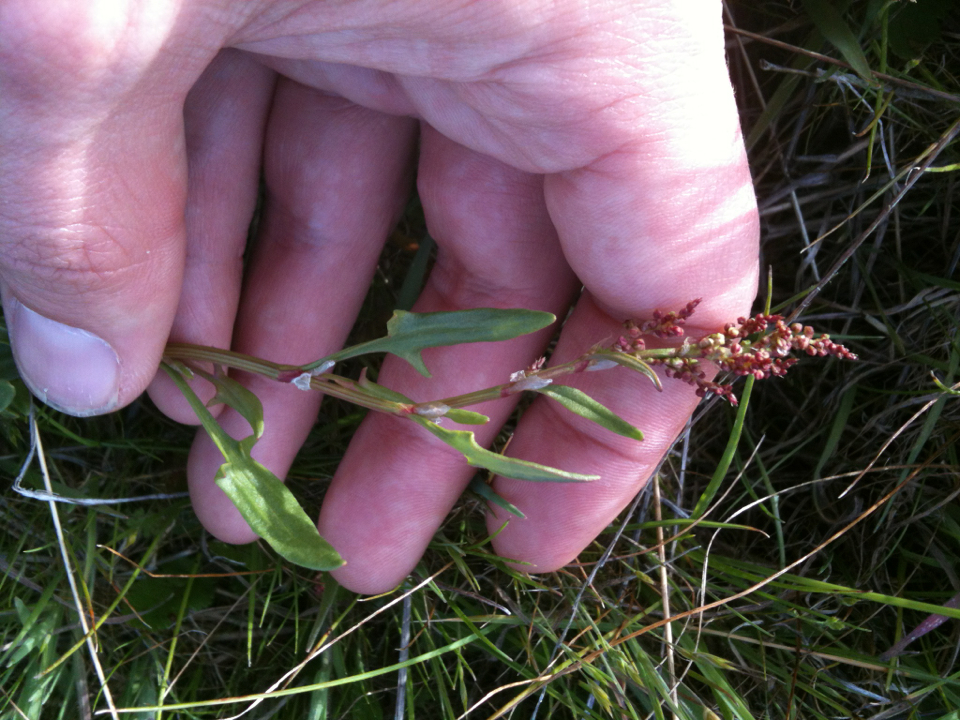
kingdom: Plantae
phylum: Tracheophyta
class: Magnoliopsida
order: Caryophyllales
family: Polygonaceae
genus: Rumex
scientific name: Rumex acetosella
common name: Common sheep sorrel
